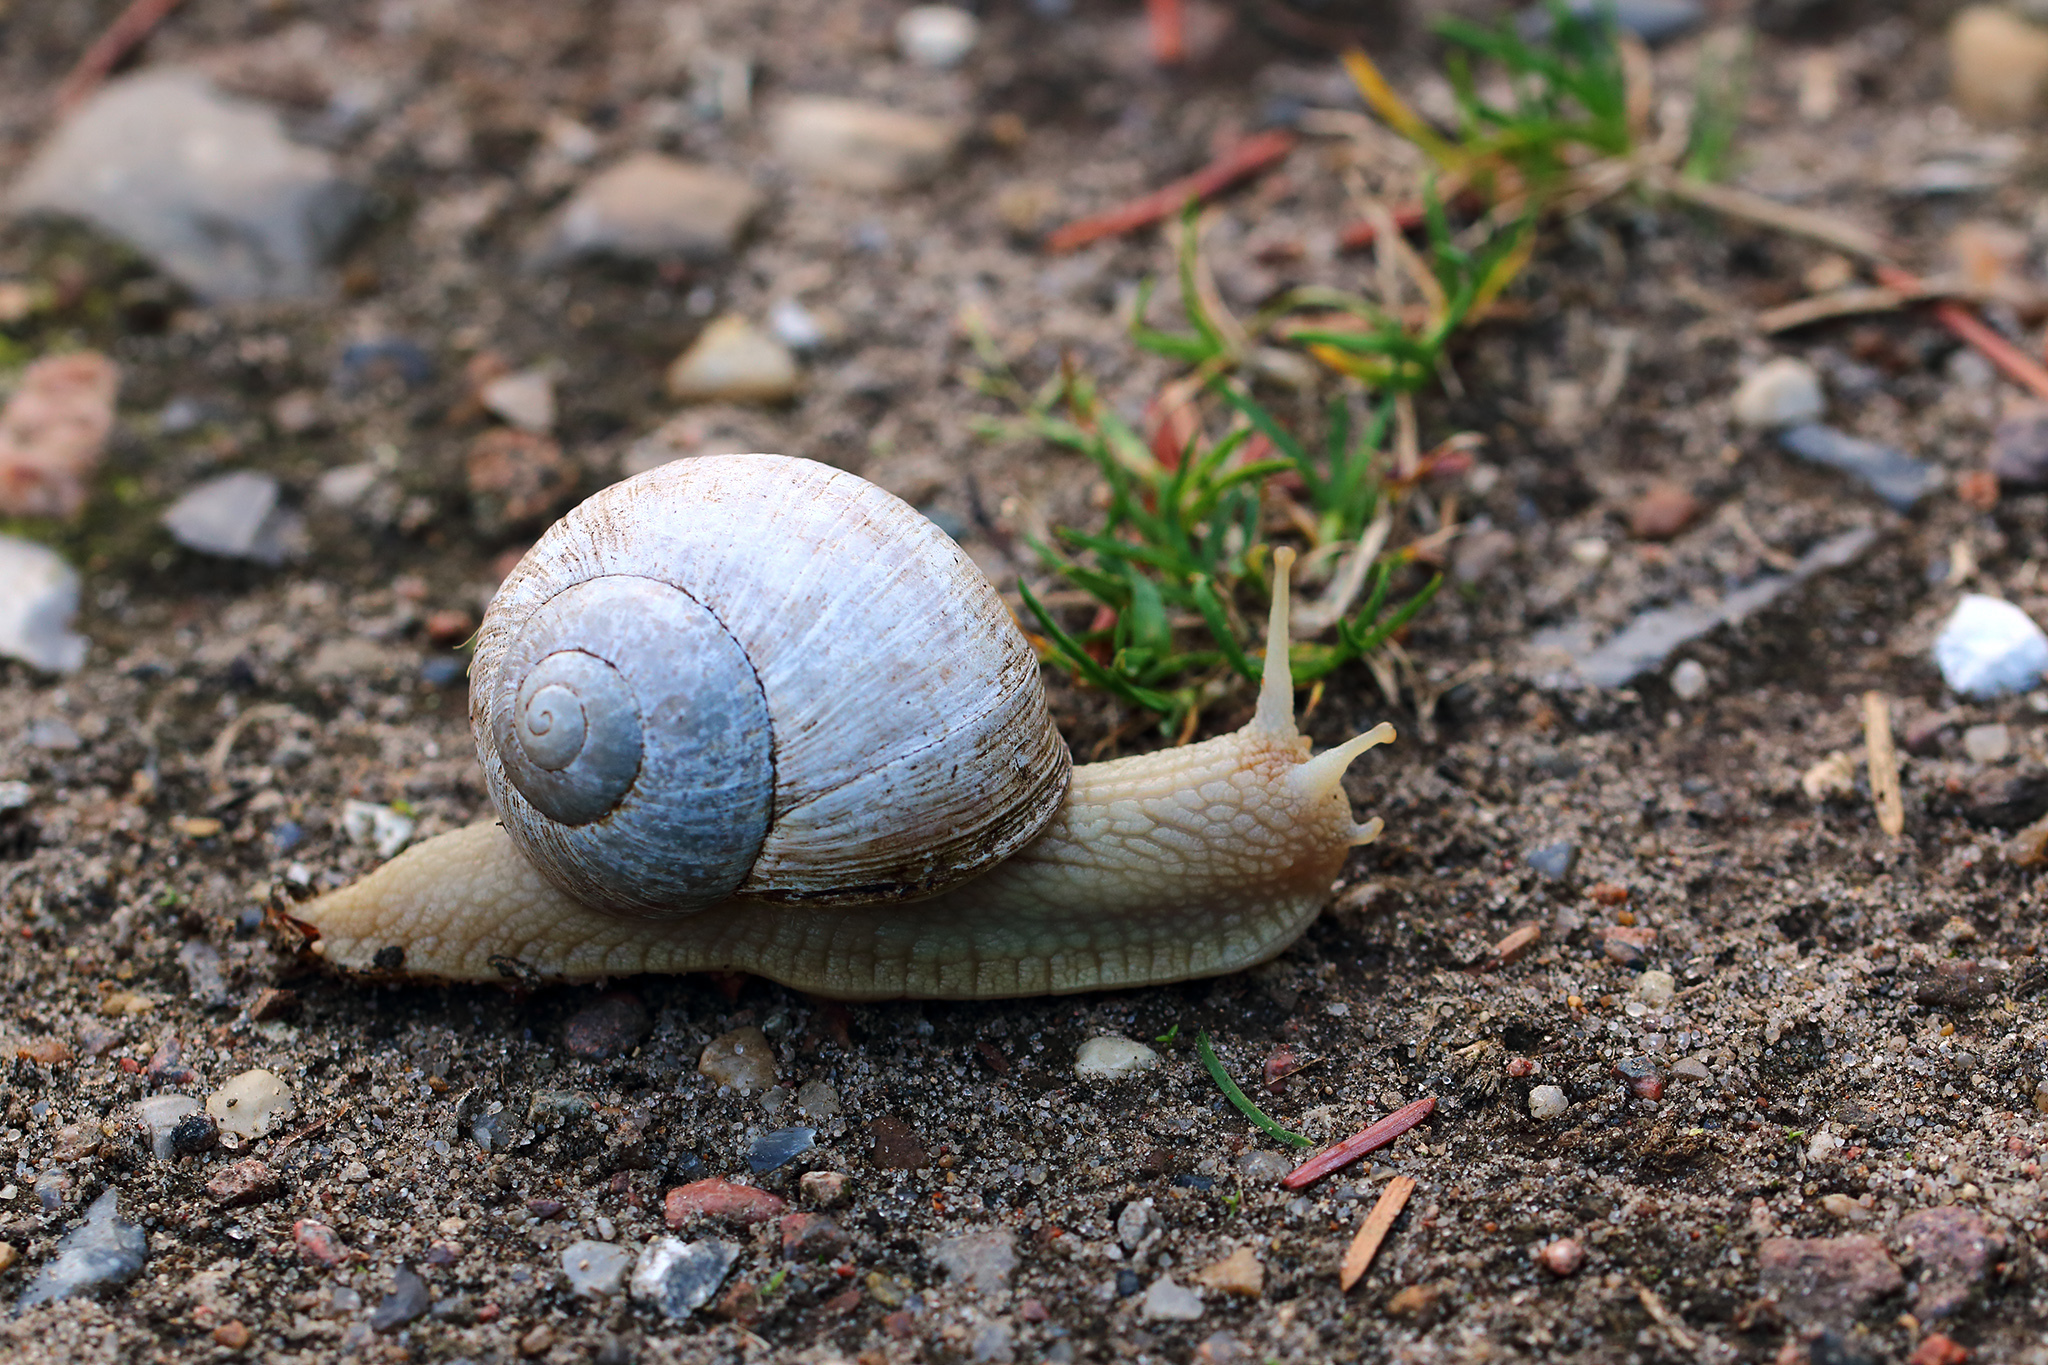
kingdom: Animalia
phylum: Mollusca
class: Gastropoda
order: Stylommatophora
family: Helicidae
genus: Helix
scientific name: Helix pomatia
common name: Roman snail
